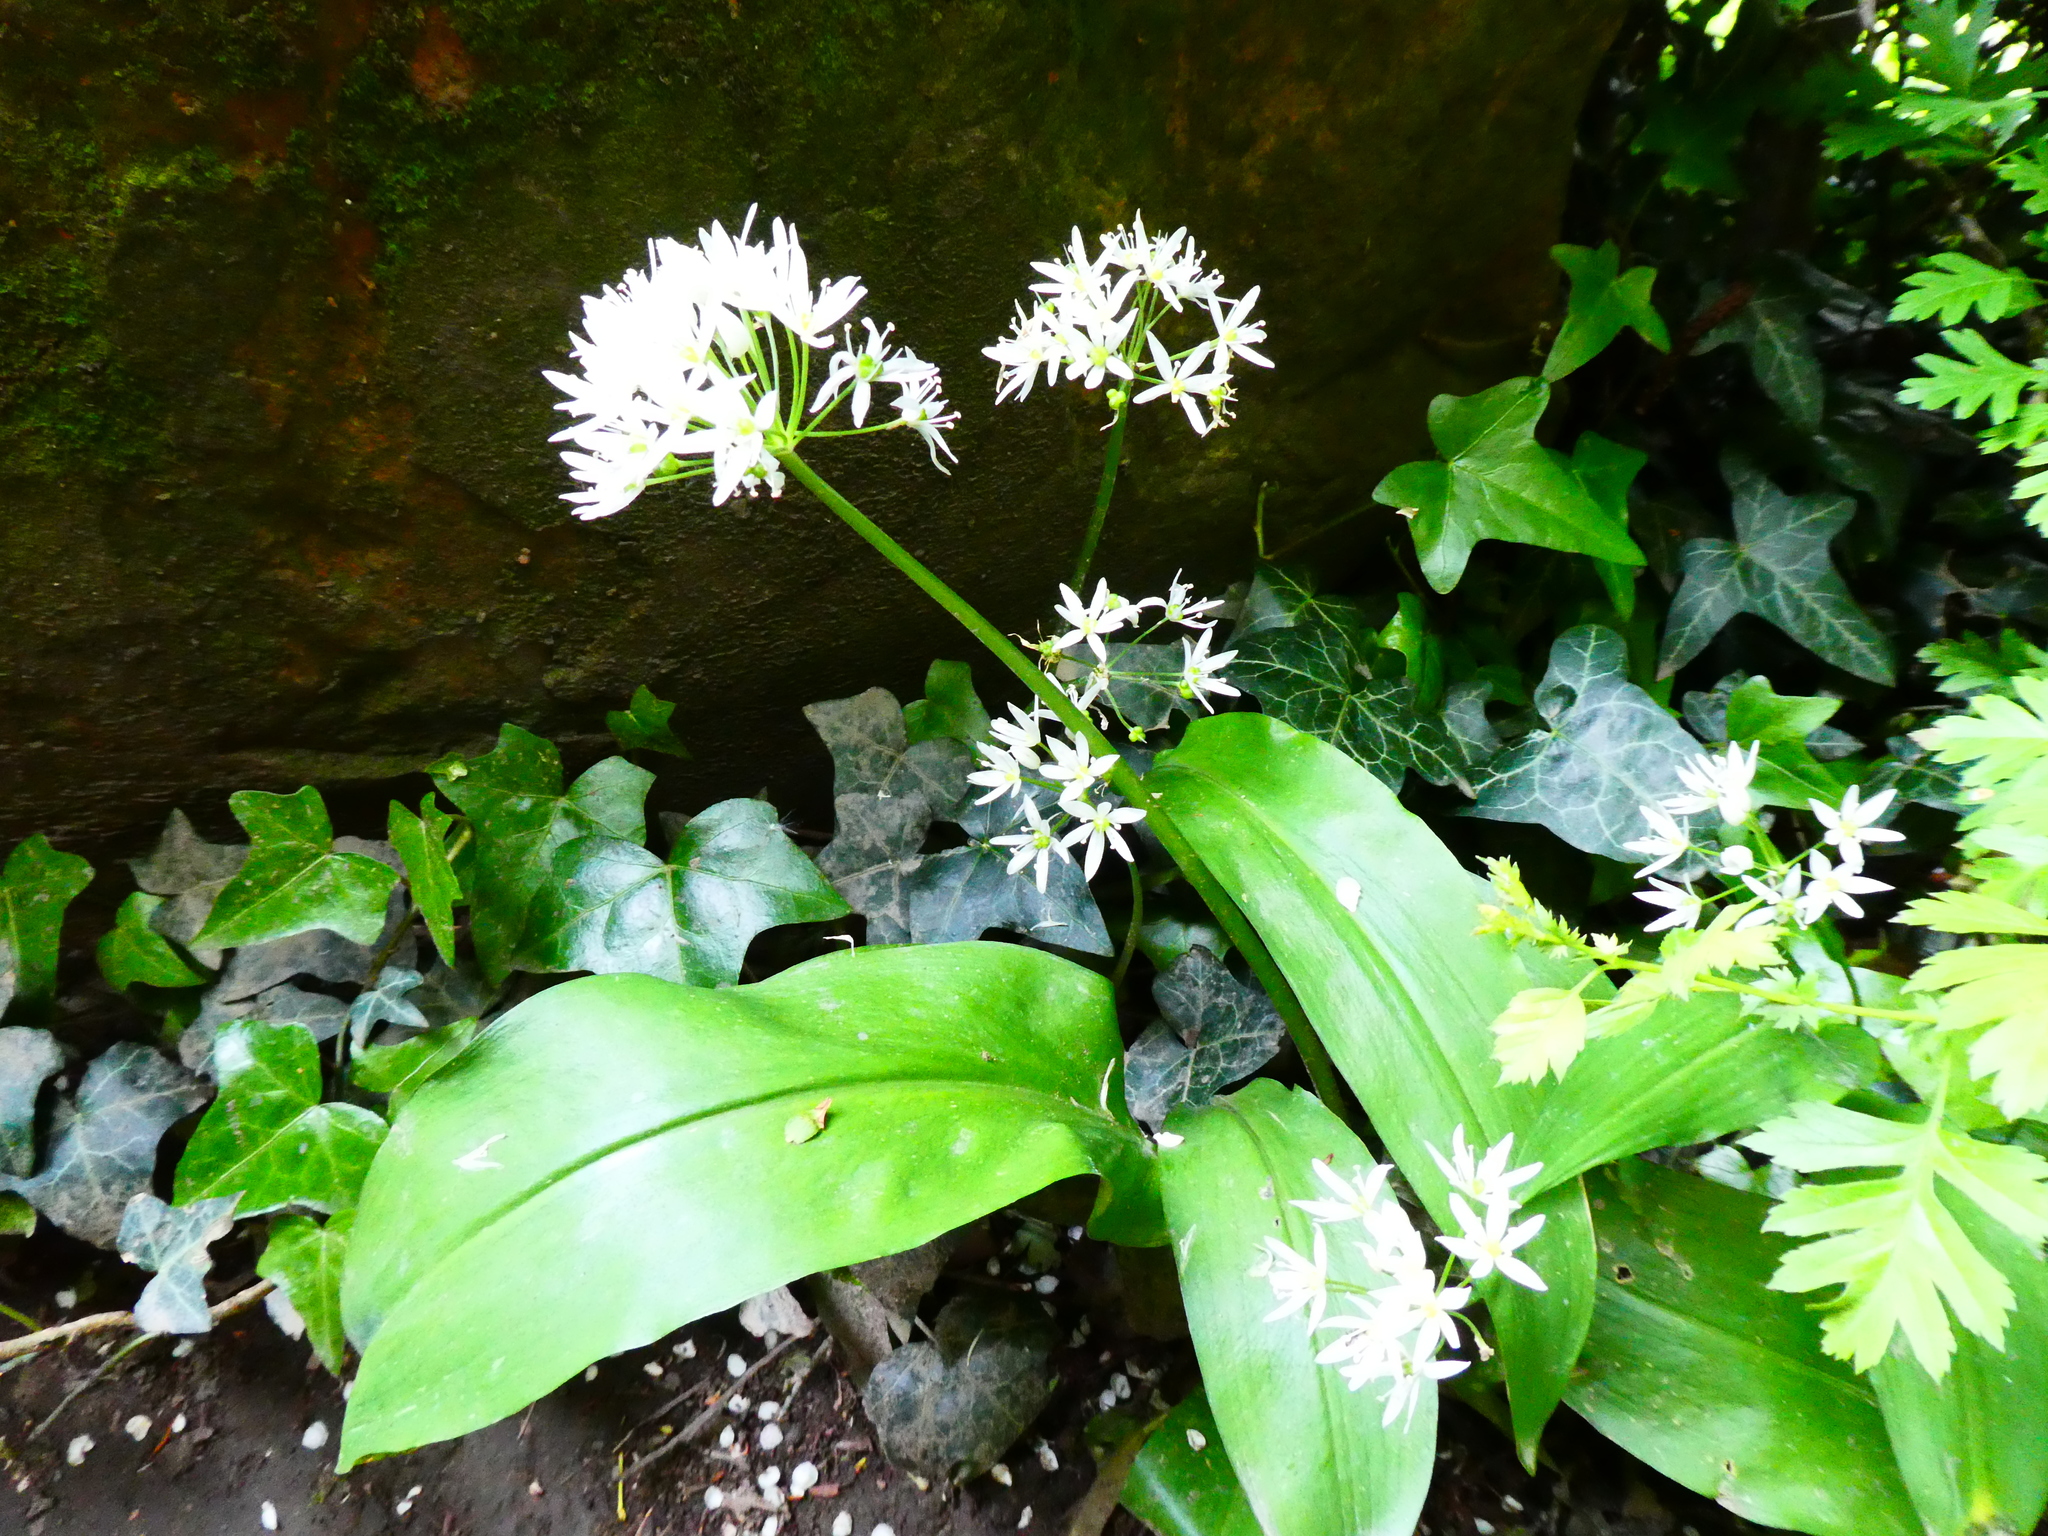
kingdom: Plantae
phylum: Tracheophyta
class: Liliopsida
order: Asparagales
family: Amaryllidaceae
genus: Allium
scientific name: Allium ursinum
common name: Ramsons
